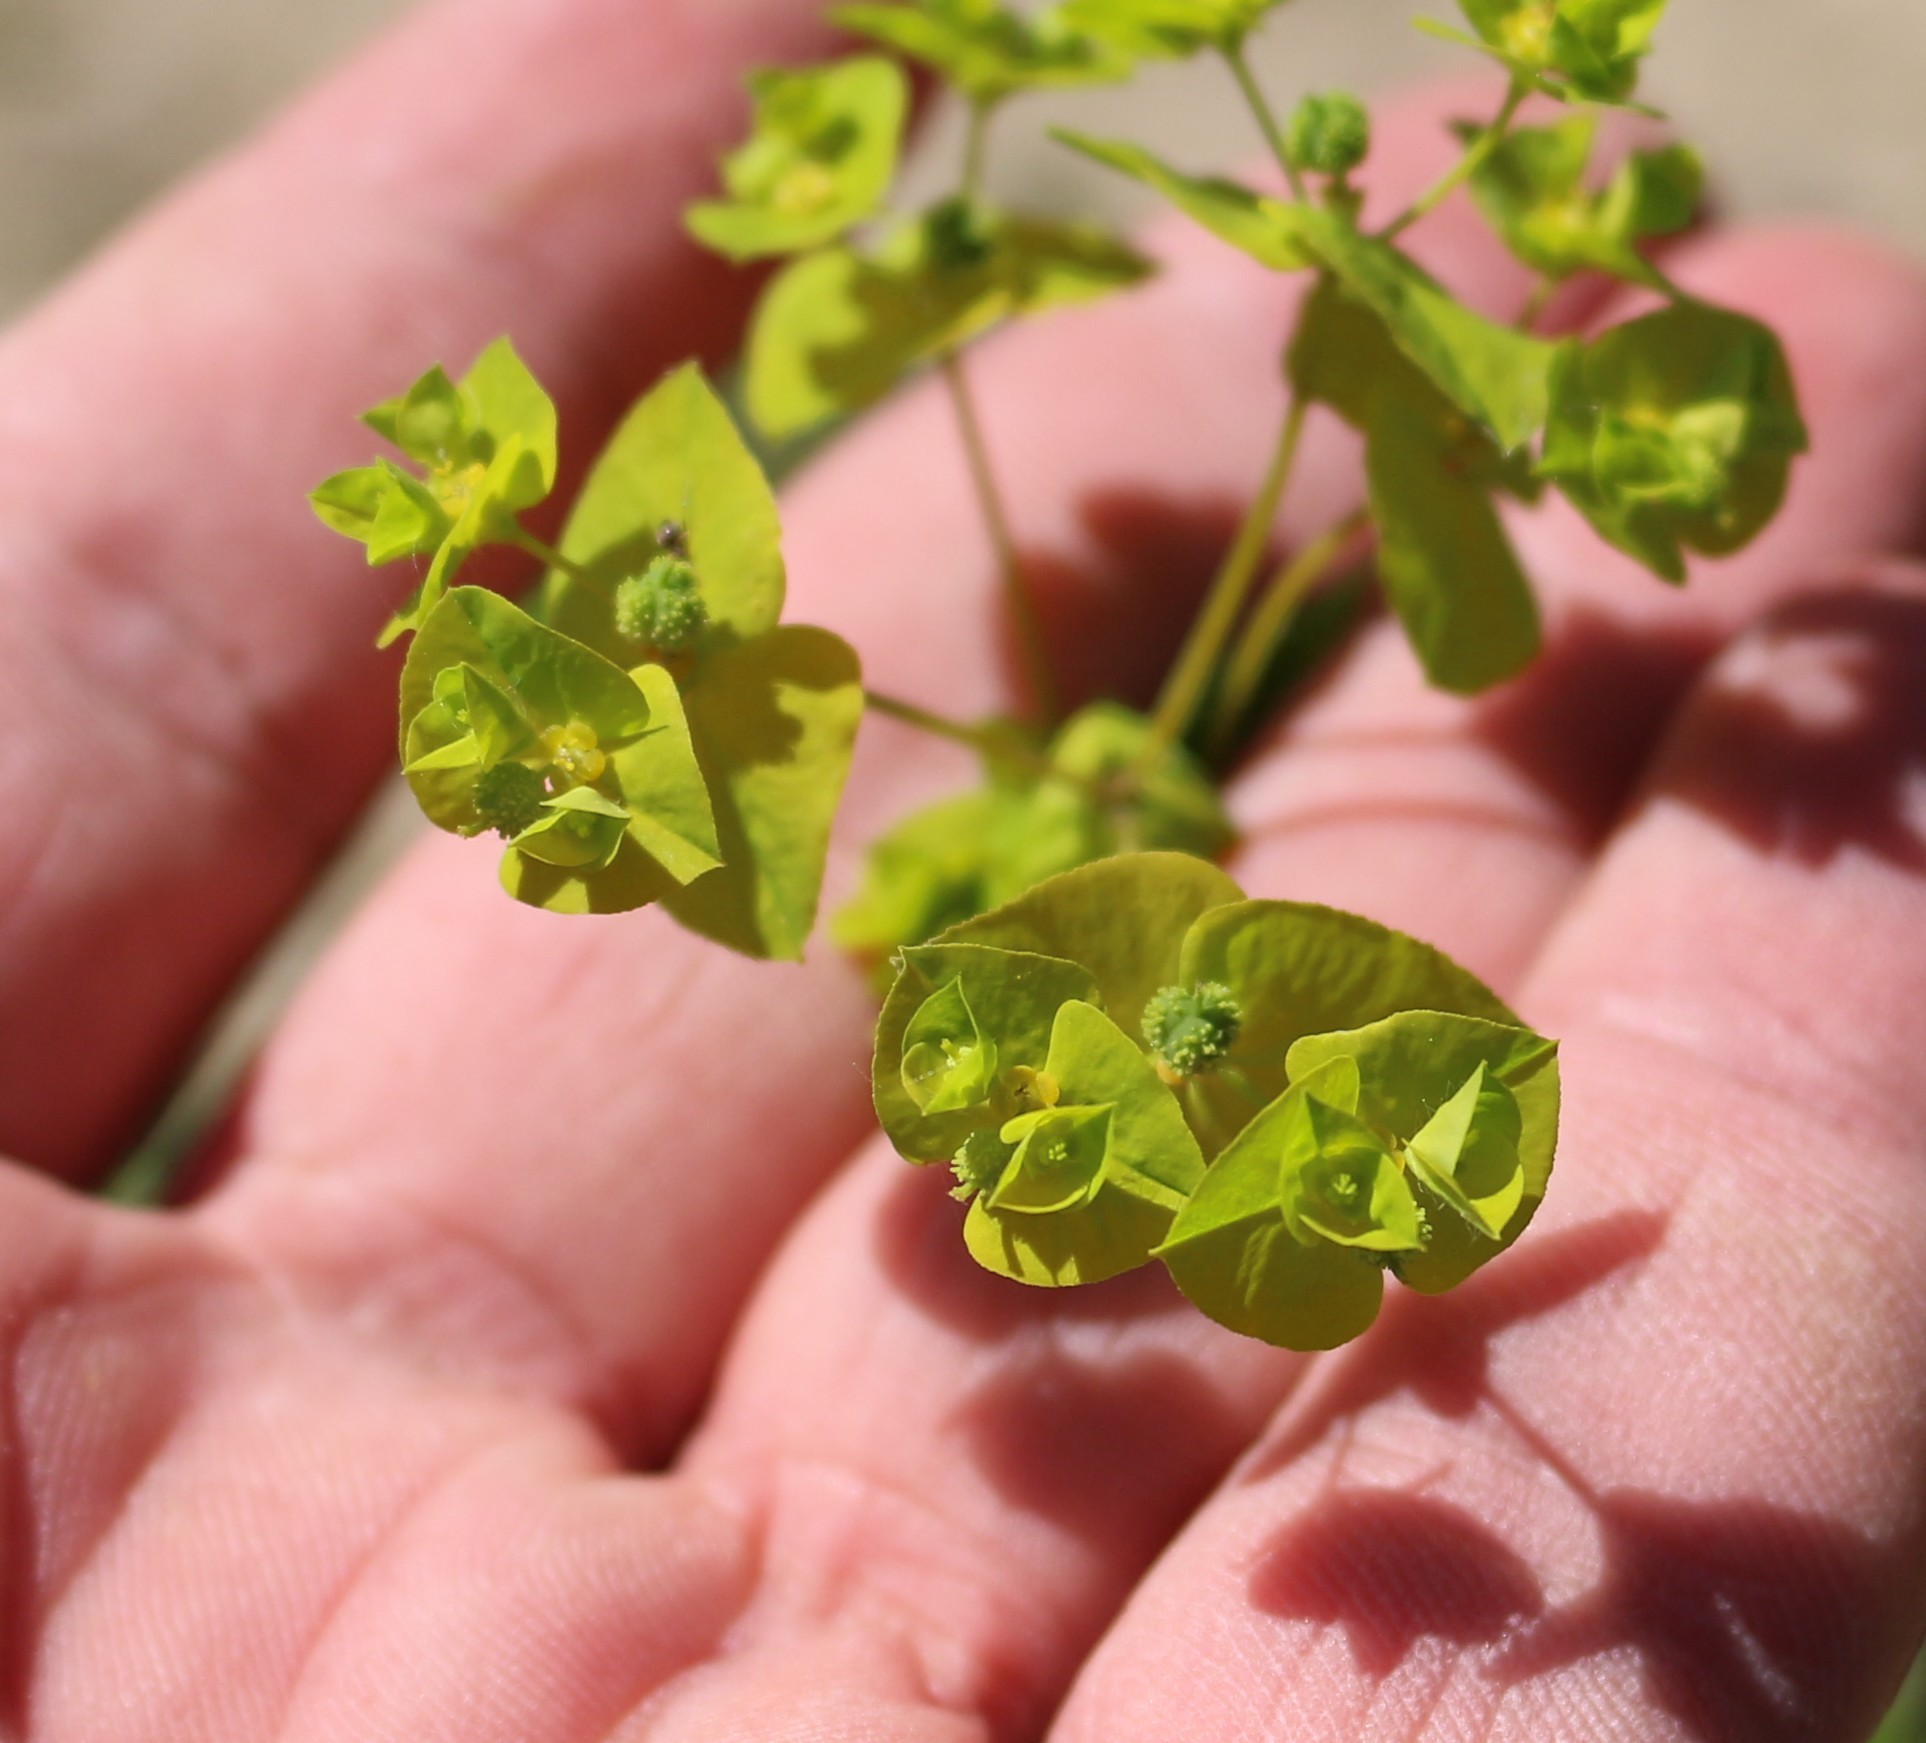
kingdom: Plantae
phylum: Tracheophyta
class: Magnoliopsida
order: Malpighiales
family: Euphorbiaceae
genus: Euphorbia
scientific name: Euphorbia stricta
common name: Upright spurge
